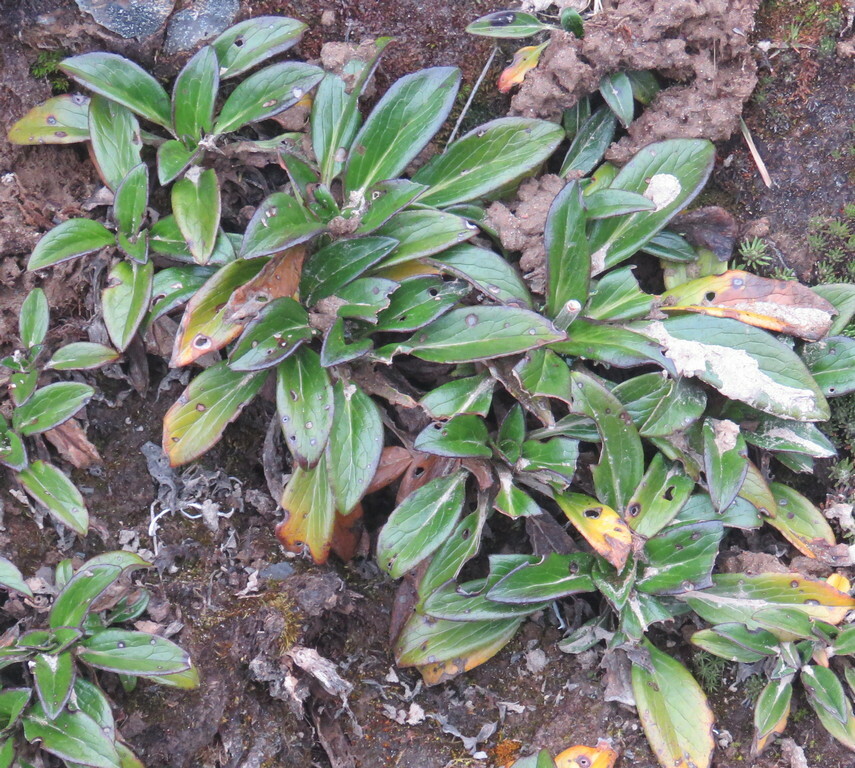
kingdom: Plantae
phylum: Tracheophyta
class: Magnoliopsida
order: Dipsacales
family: Caprifoliaceae
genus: Valeriana
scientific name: Valeriana pilosa
